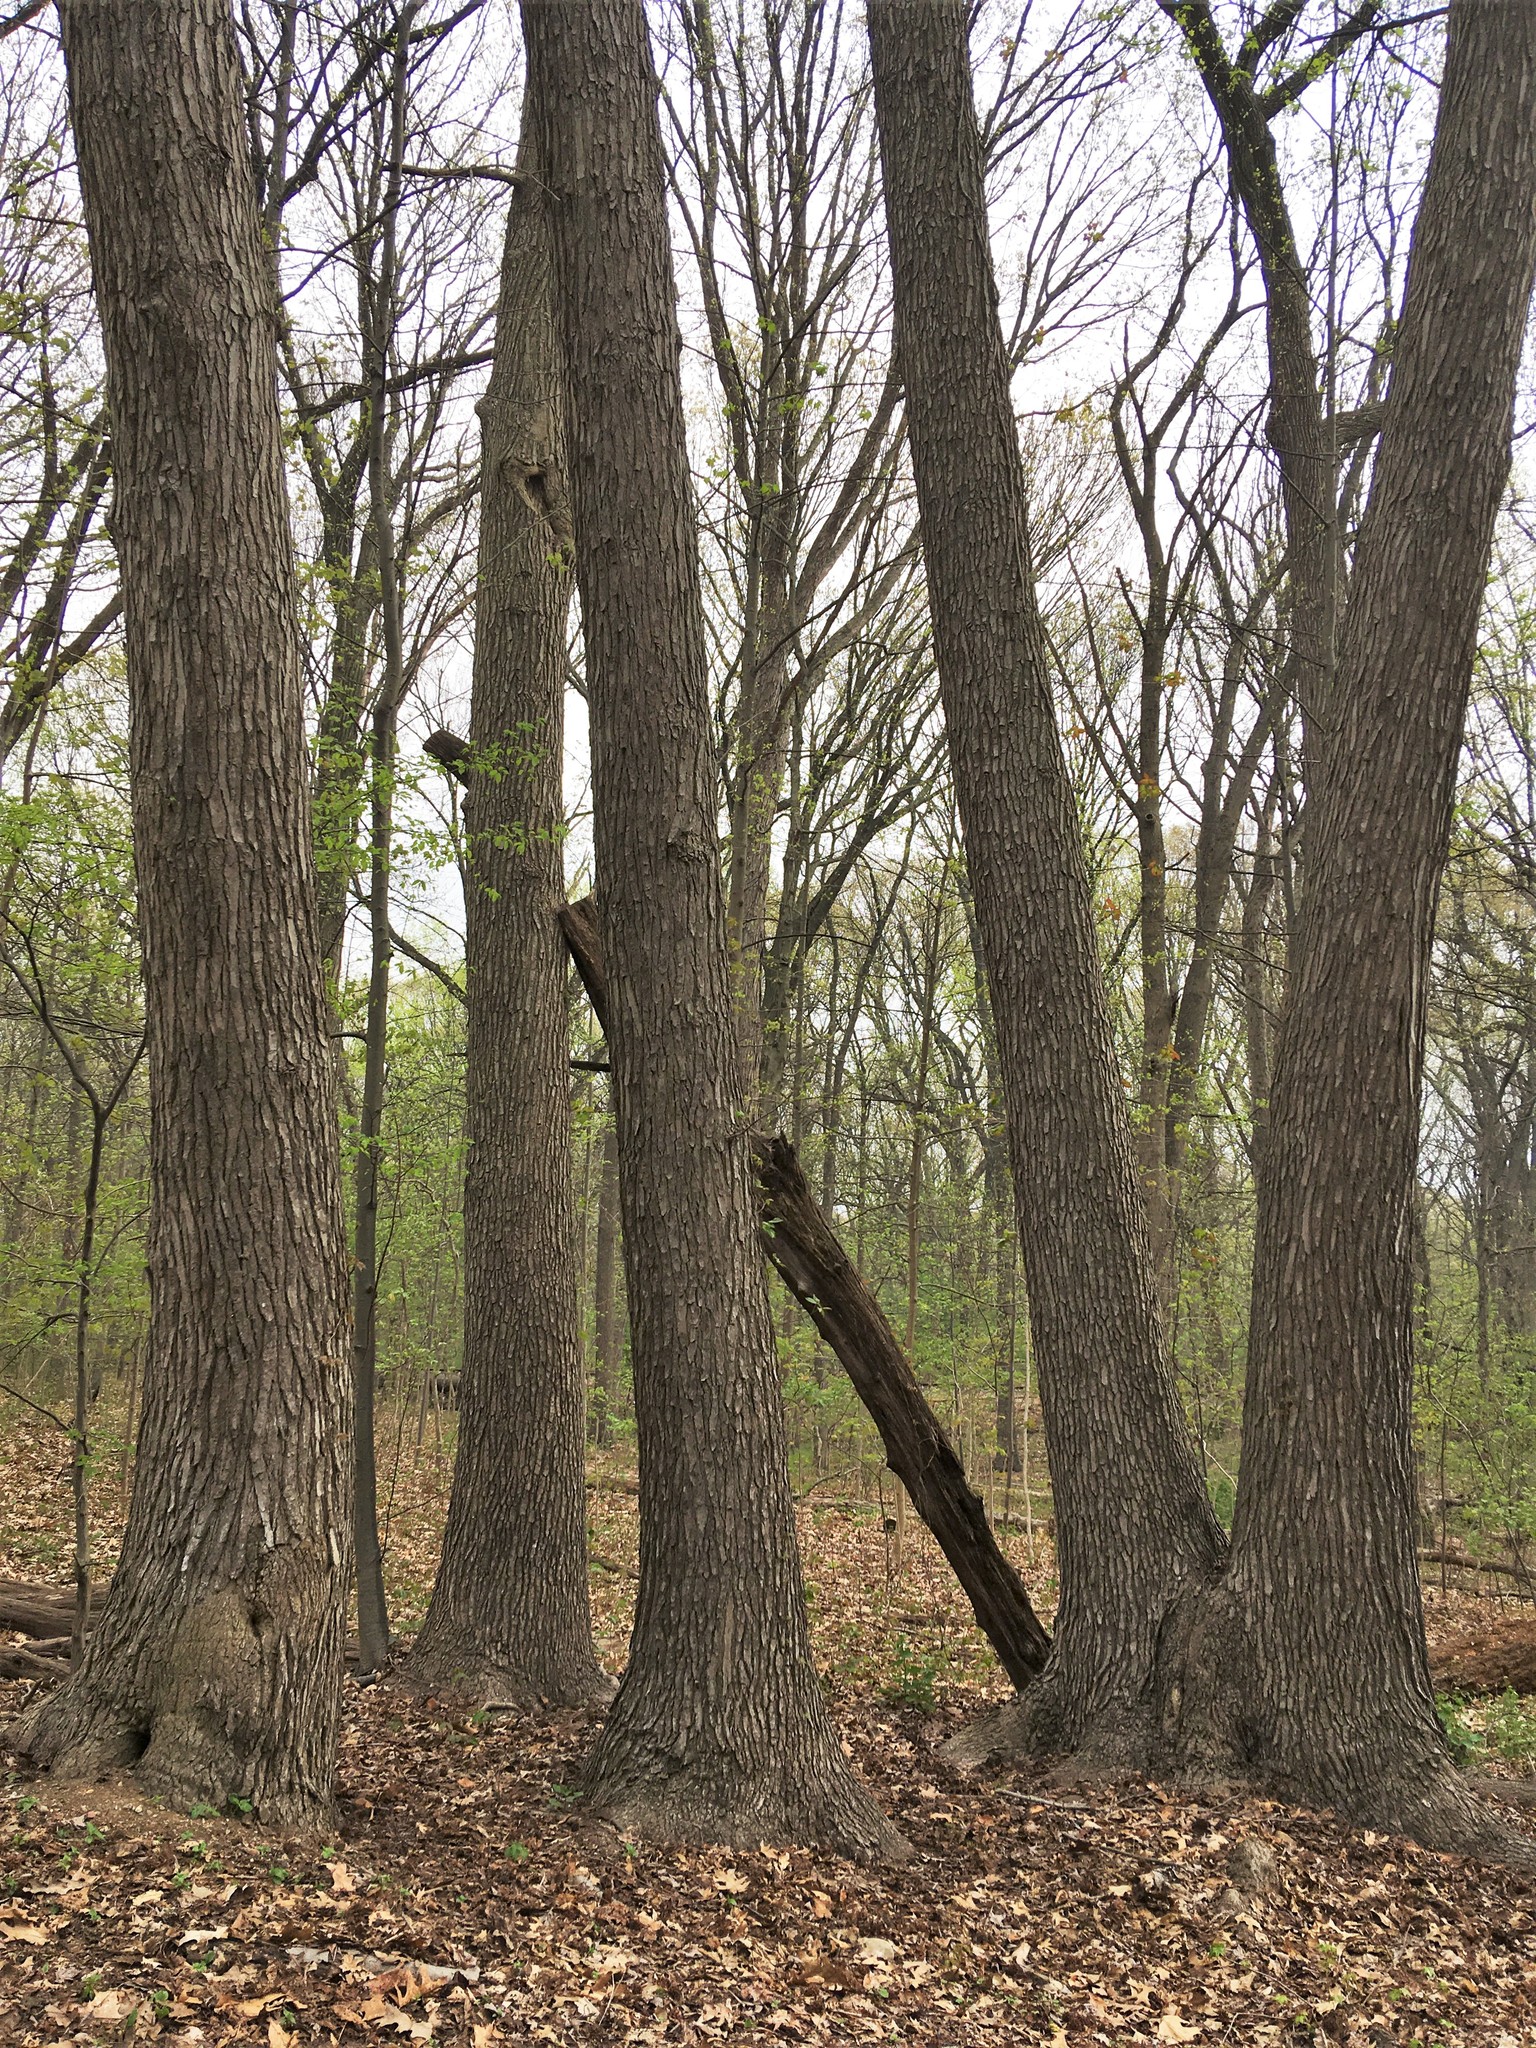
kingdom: Plantae
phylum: Tracheophyta
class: Magnoliopsida
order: Saxifragales
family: Altingiaceae
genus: Liquidambar
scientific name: Liquidambar styraciflua
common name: Sweet gum
